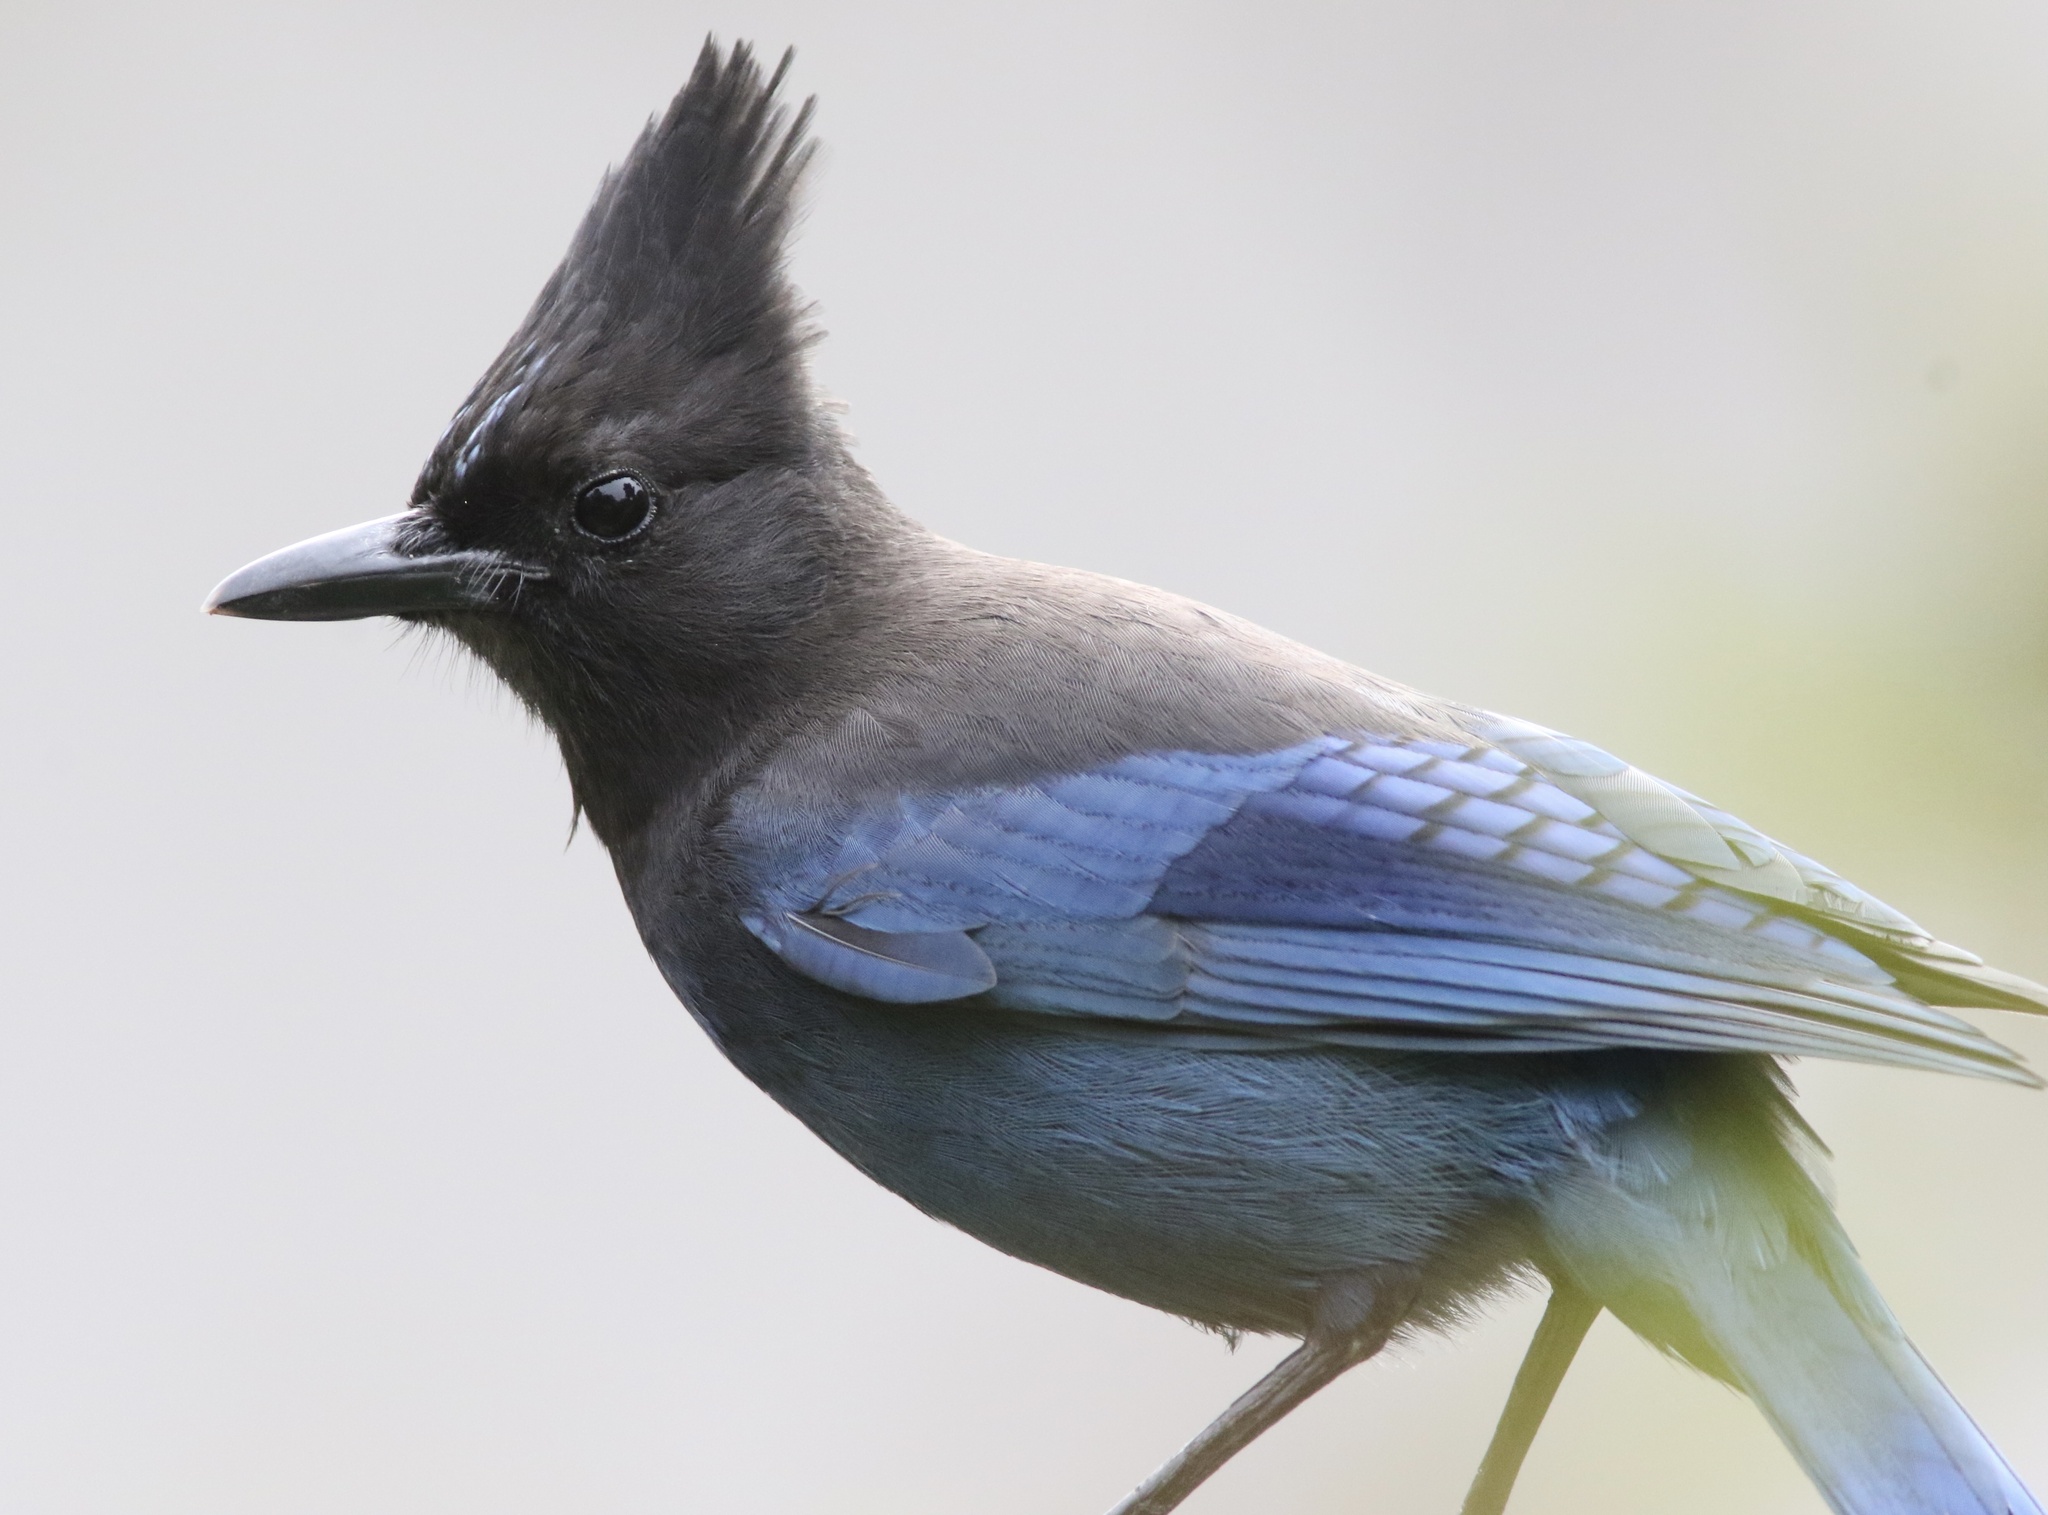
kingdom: Animalia
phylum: Chordata
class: Aves
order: Passeriformes
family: Corvidae
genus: Cyanocitta
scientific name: Cyanocitta stelleri
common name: Steller's jay
